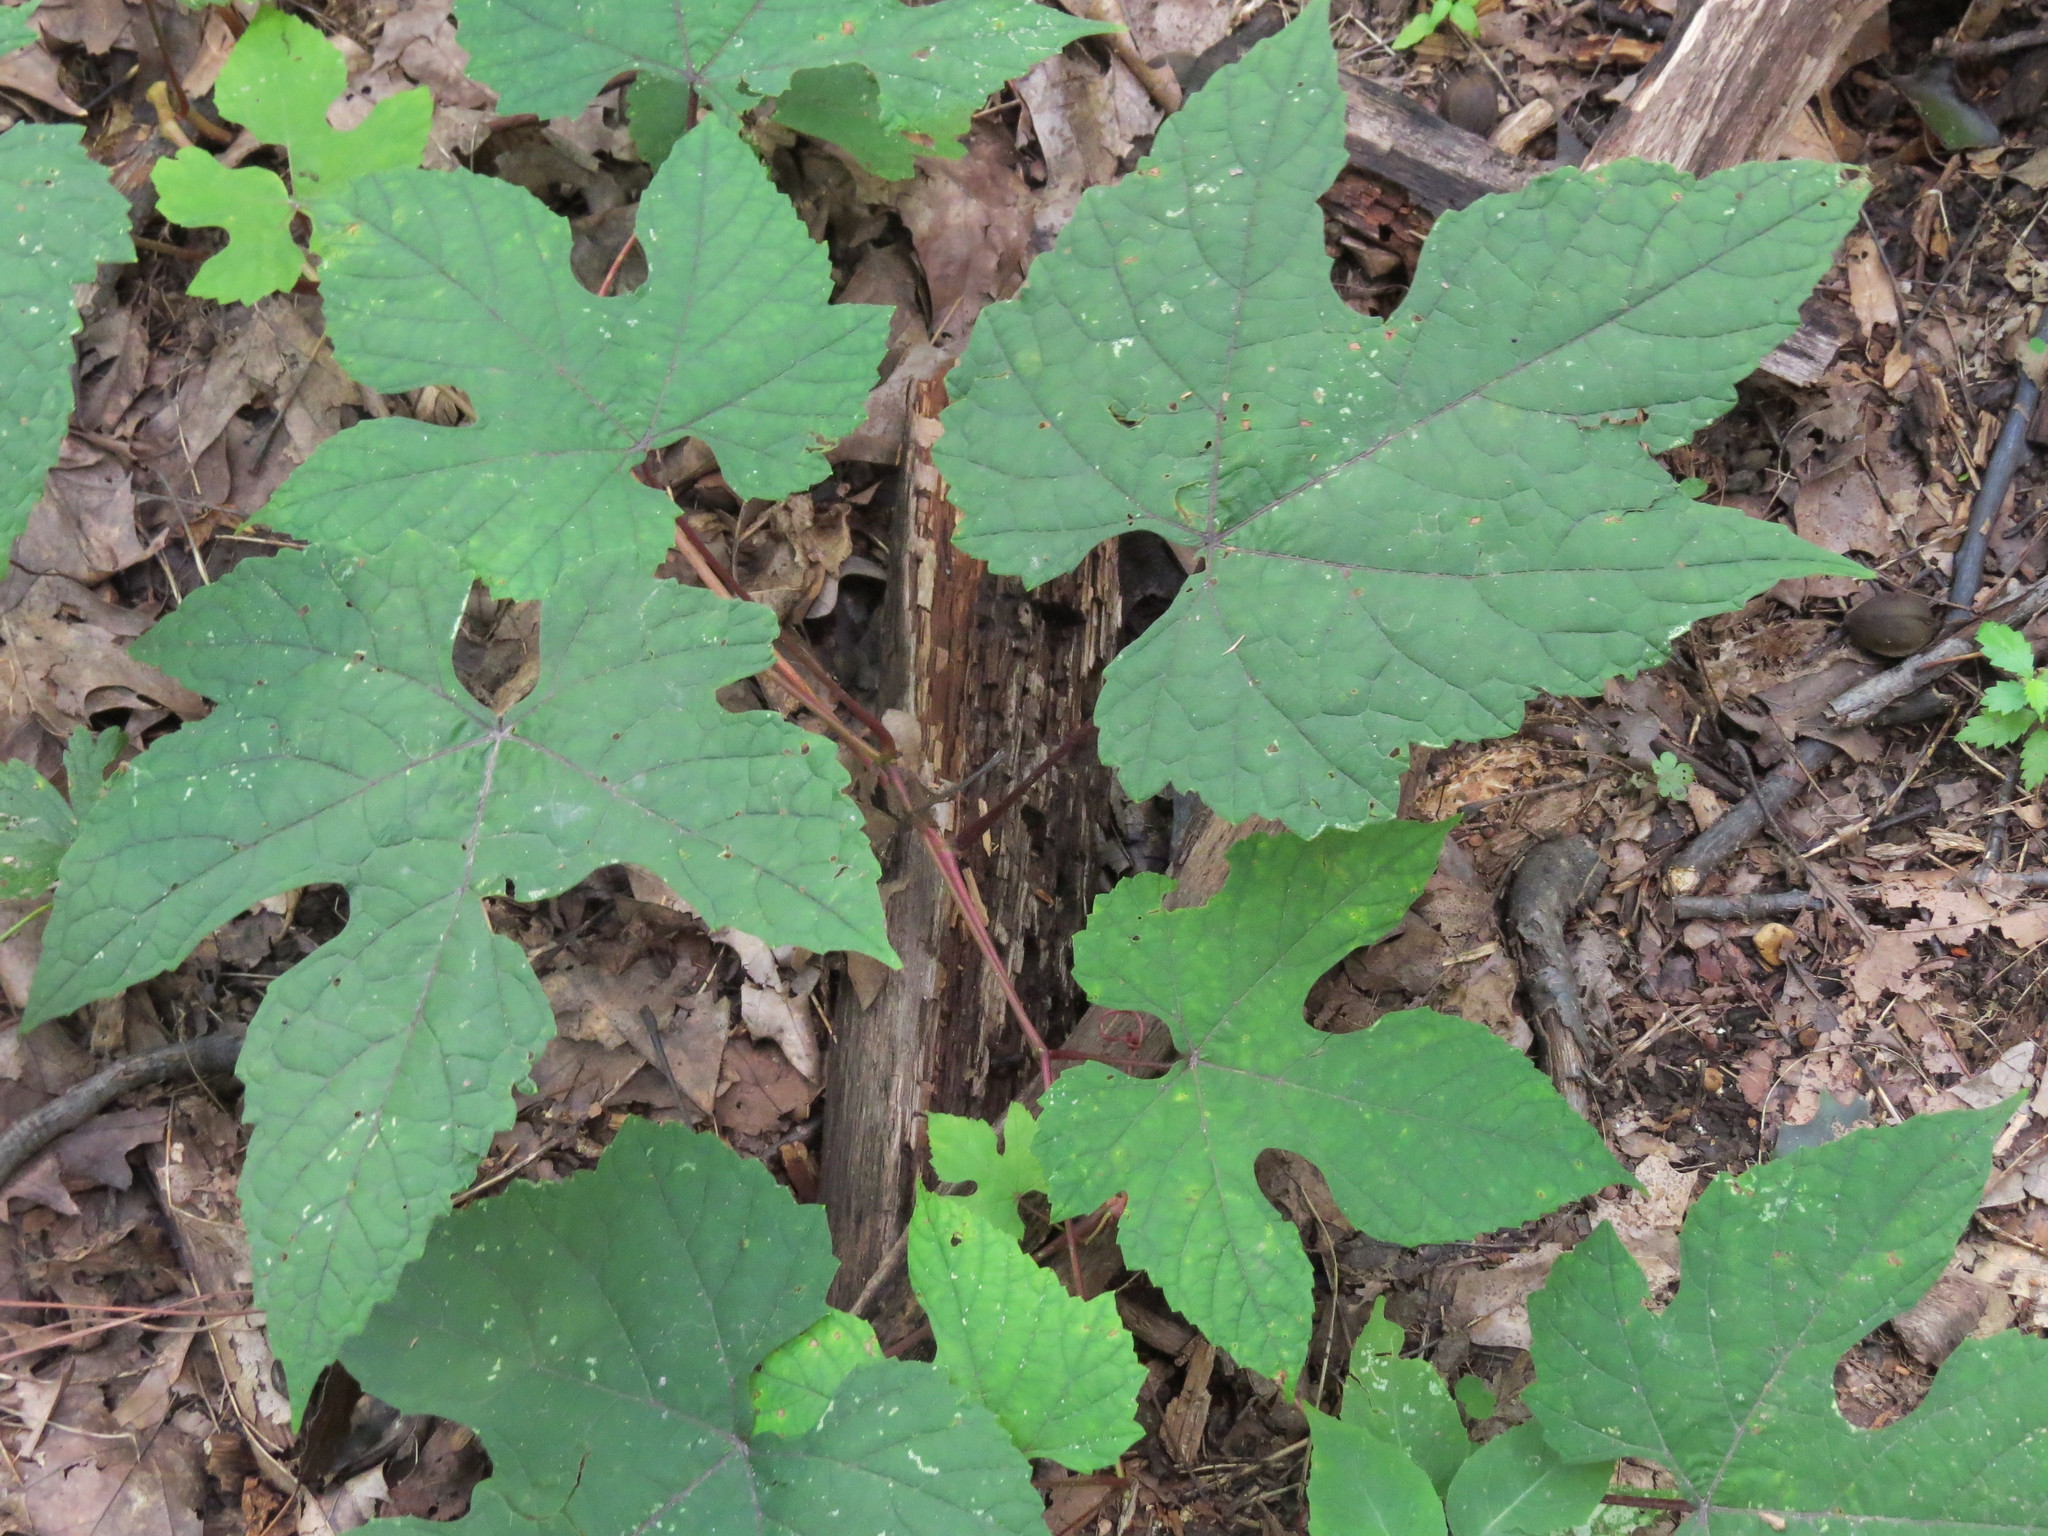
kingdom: Plantae
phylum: Tracheophyta
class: Magnoliopsida
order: Vitales
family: Vitaceae
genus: Vitis
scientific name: Vitis aestivalis
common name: Pigeon grape
